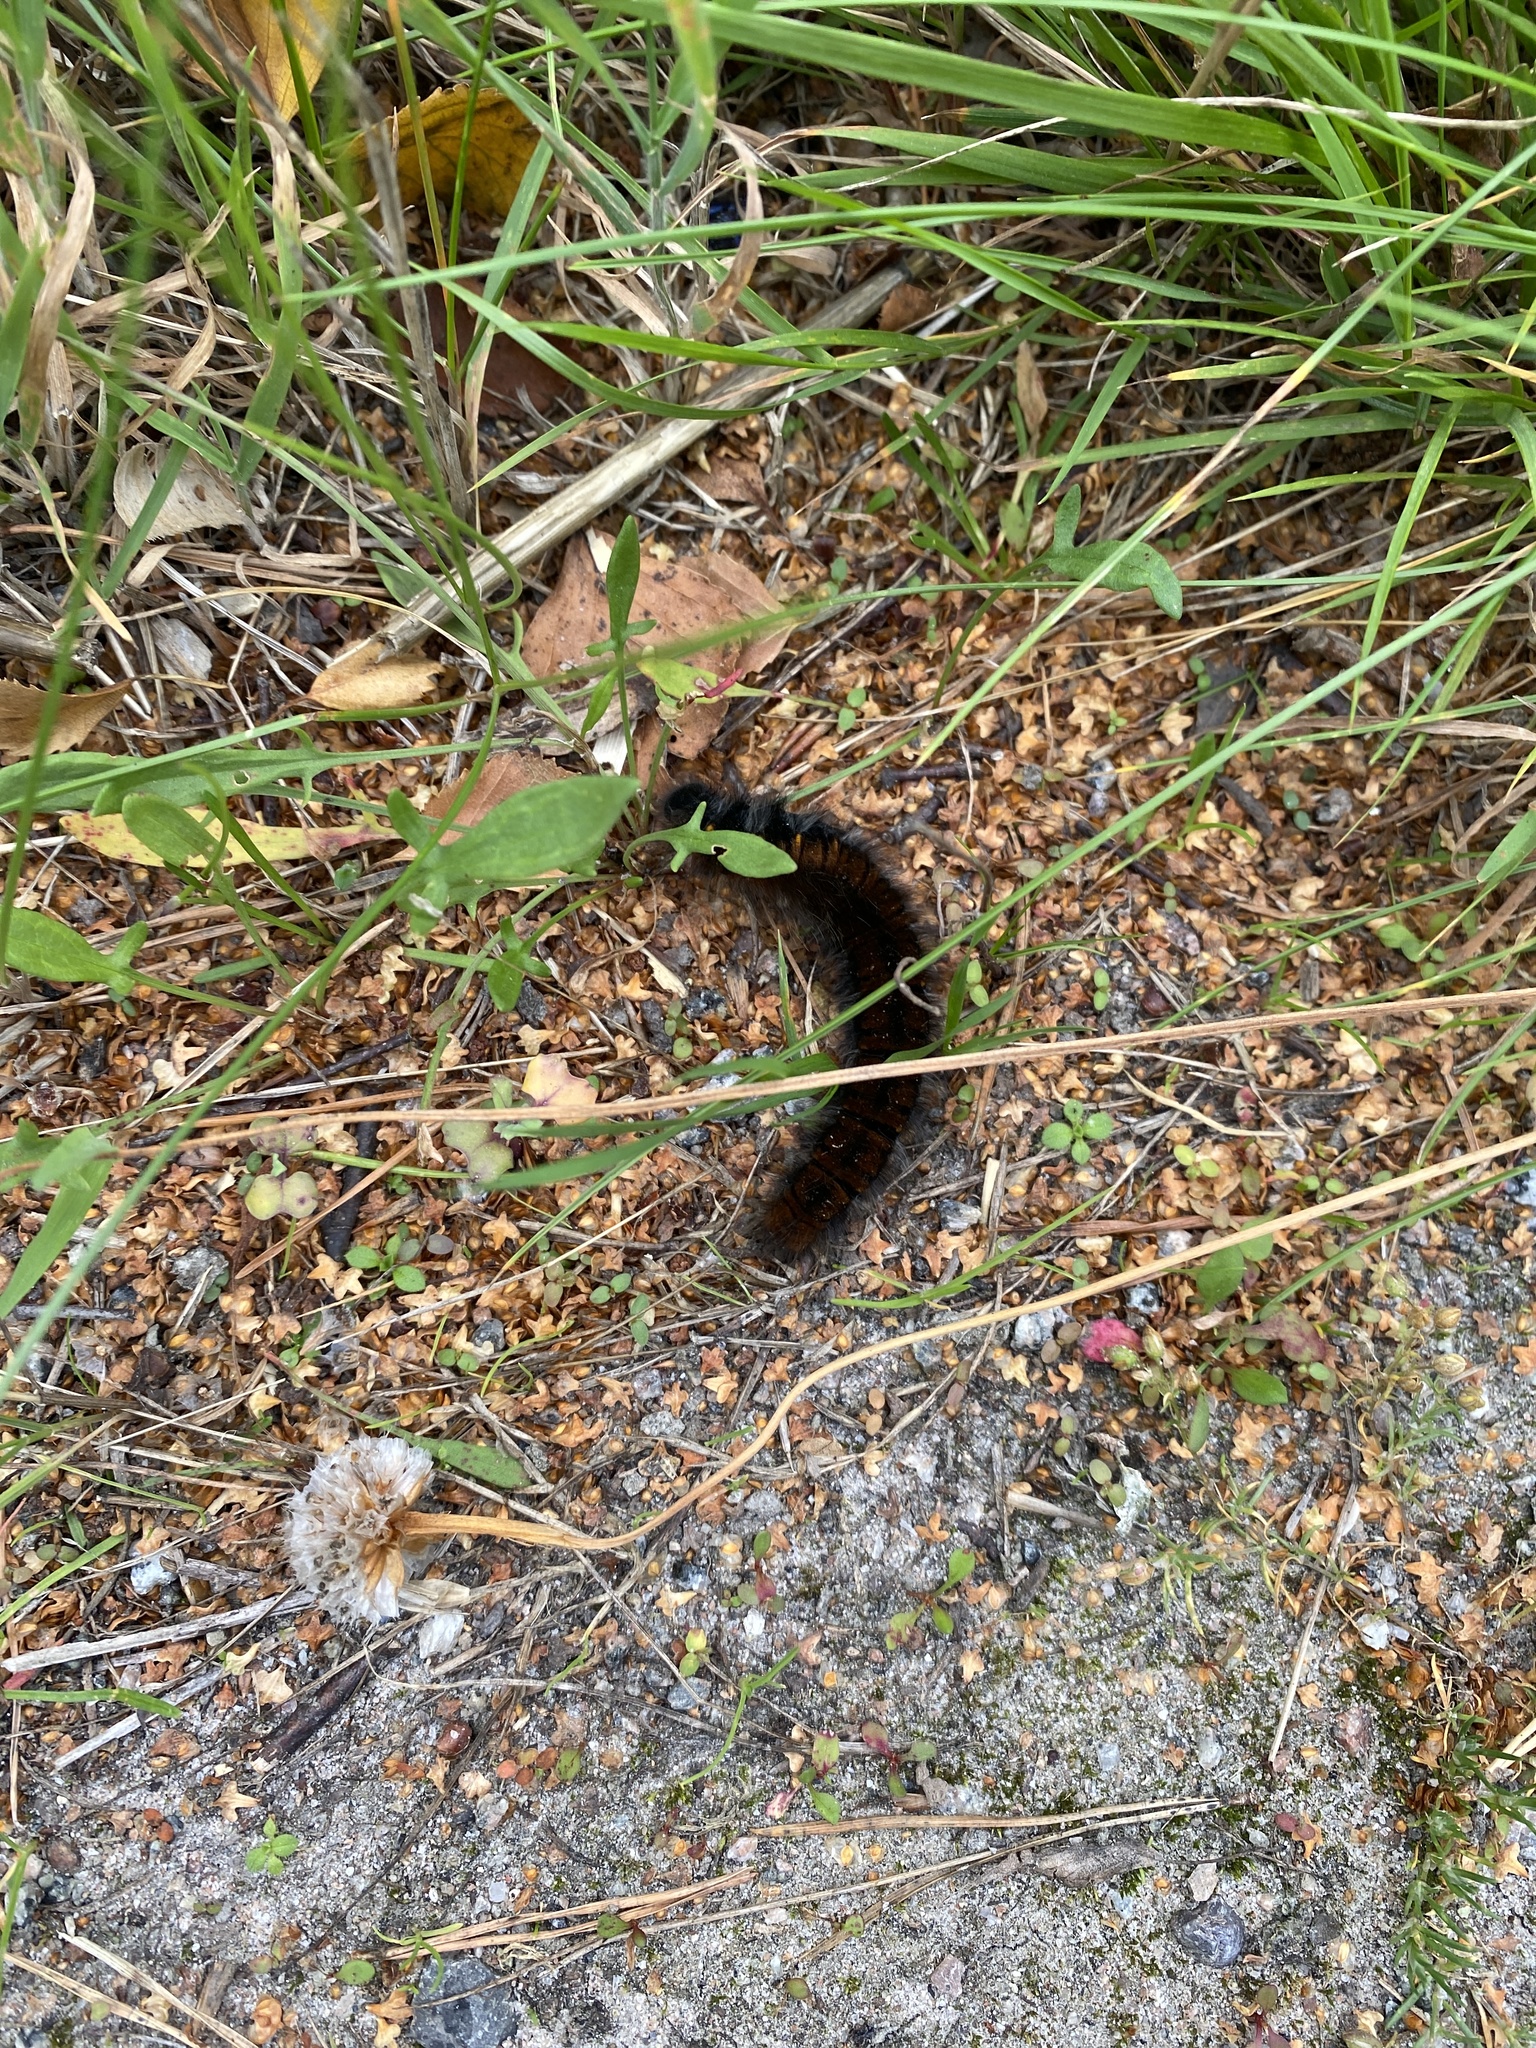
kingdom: Animalia
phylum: Arthropoda
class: Insecta
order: Lepidoptera
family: Lasiocampidae
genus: Macrothylacia
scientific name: Macrothylacia rubi
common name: Fox moth
